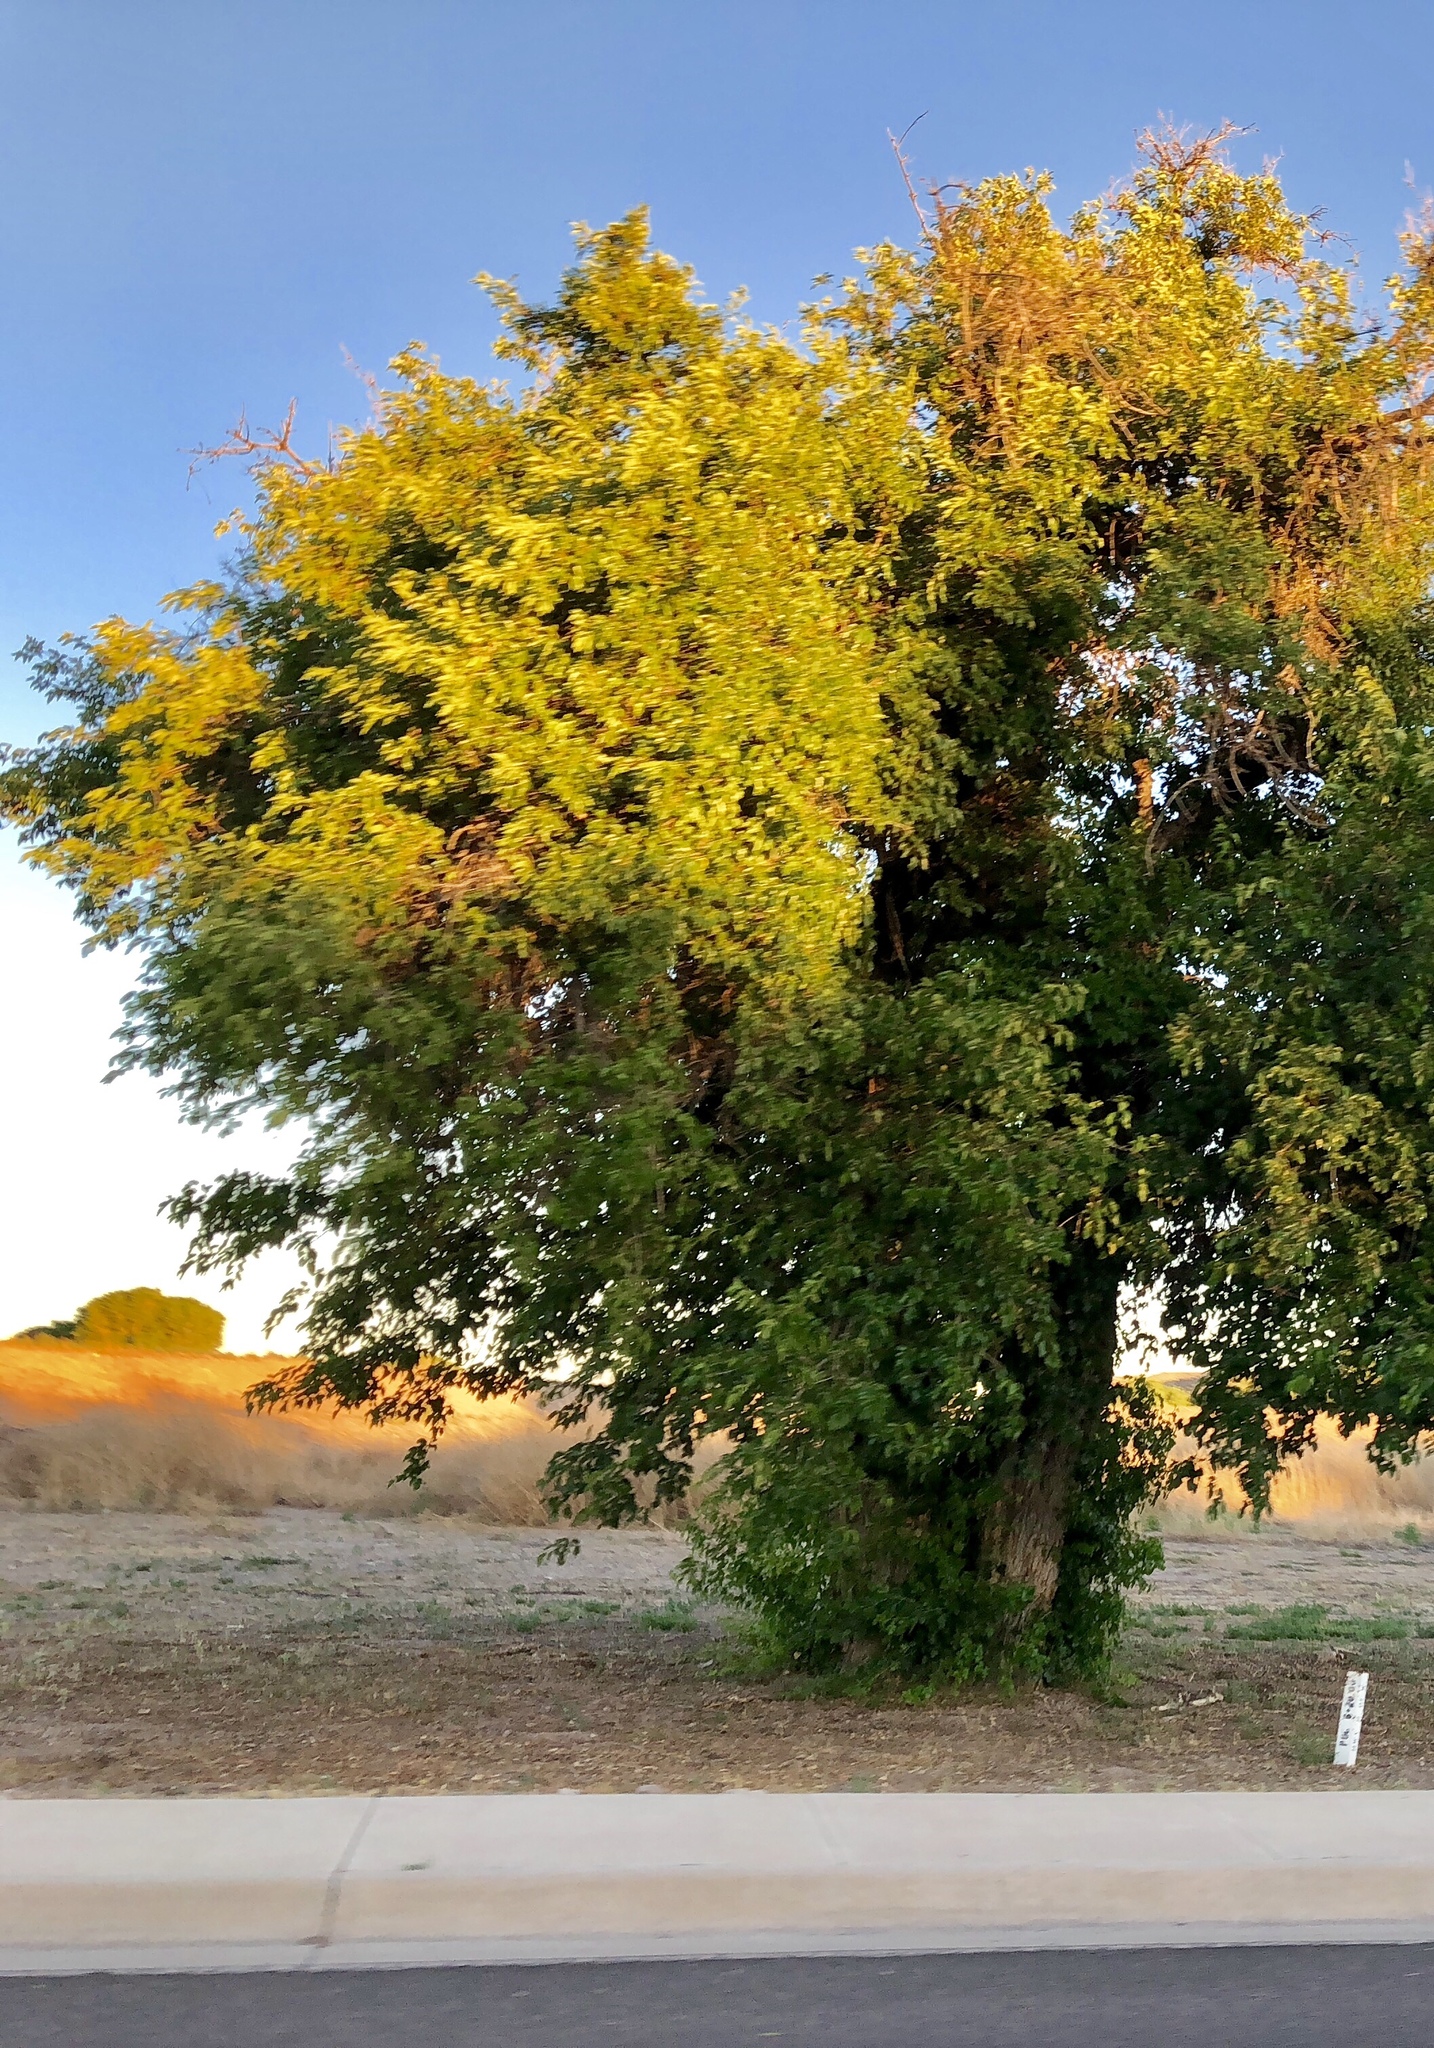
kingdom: Plantae
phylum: Tracheophyta
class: Magnoliopsida
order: Malpighiales
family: Salicaceae
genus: Populus
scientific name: Populus fremontii
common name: Fremont's cottonwood
